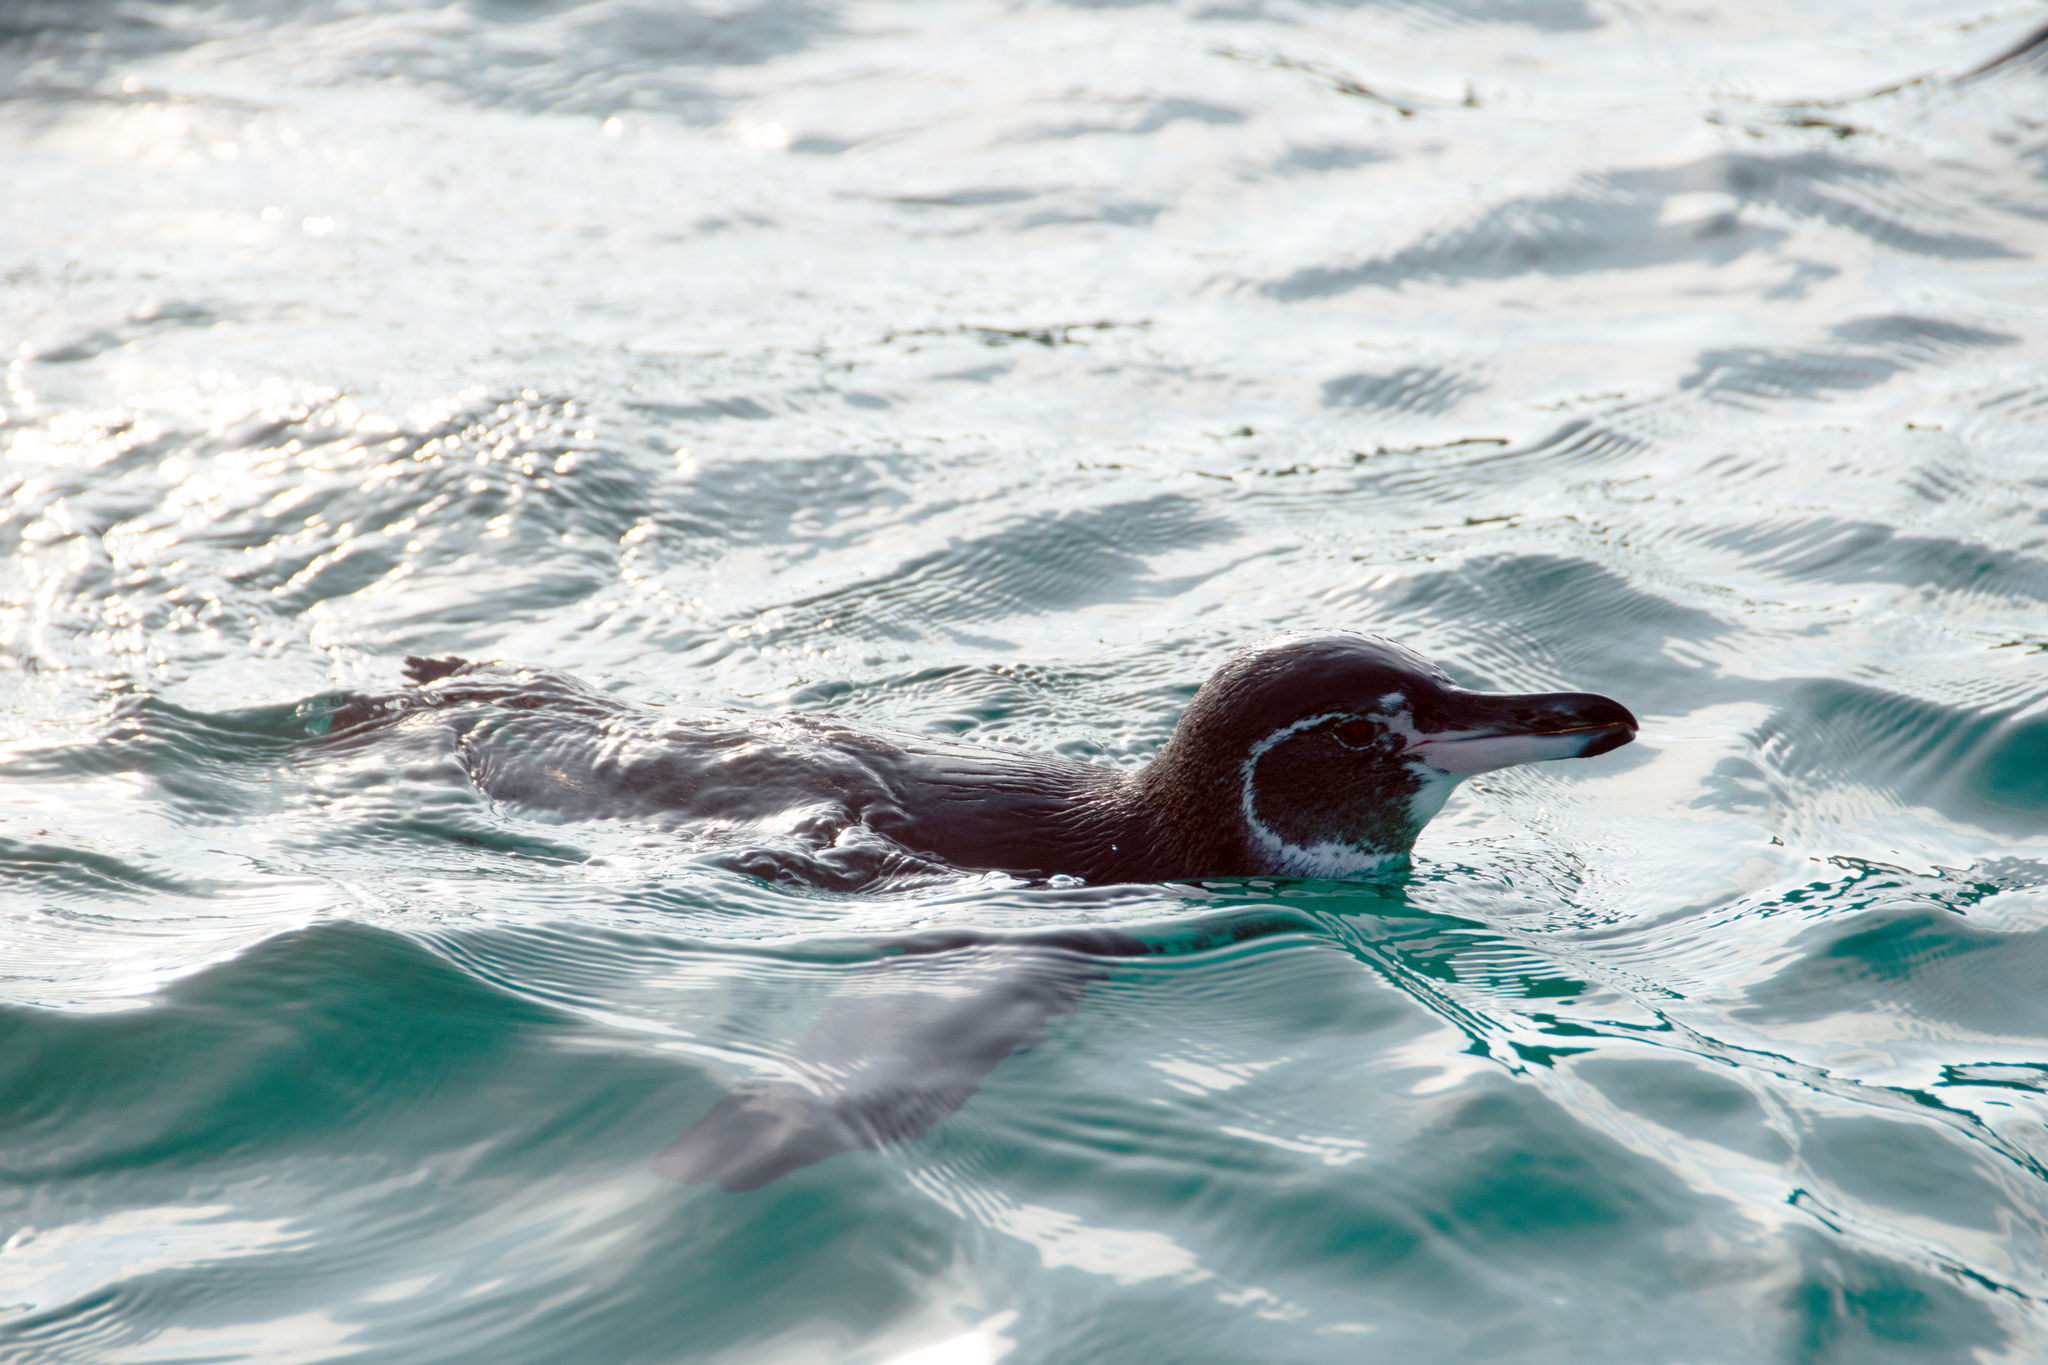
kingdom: Animalia
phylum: Chordata
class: Aves
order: Sphenisciformes
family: Spheniscidae
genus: Spheniscus
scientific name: Spheniscus mendiculus
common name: Galapagos penguin
